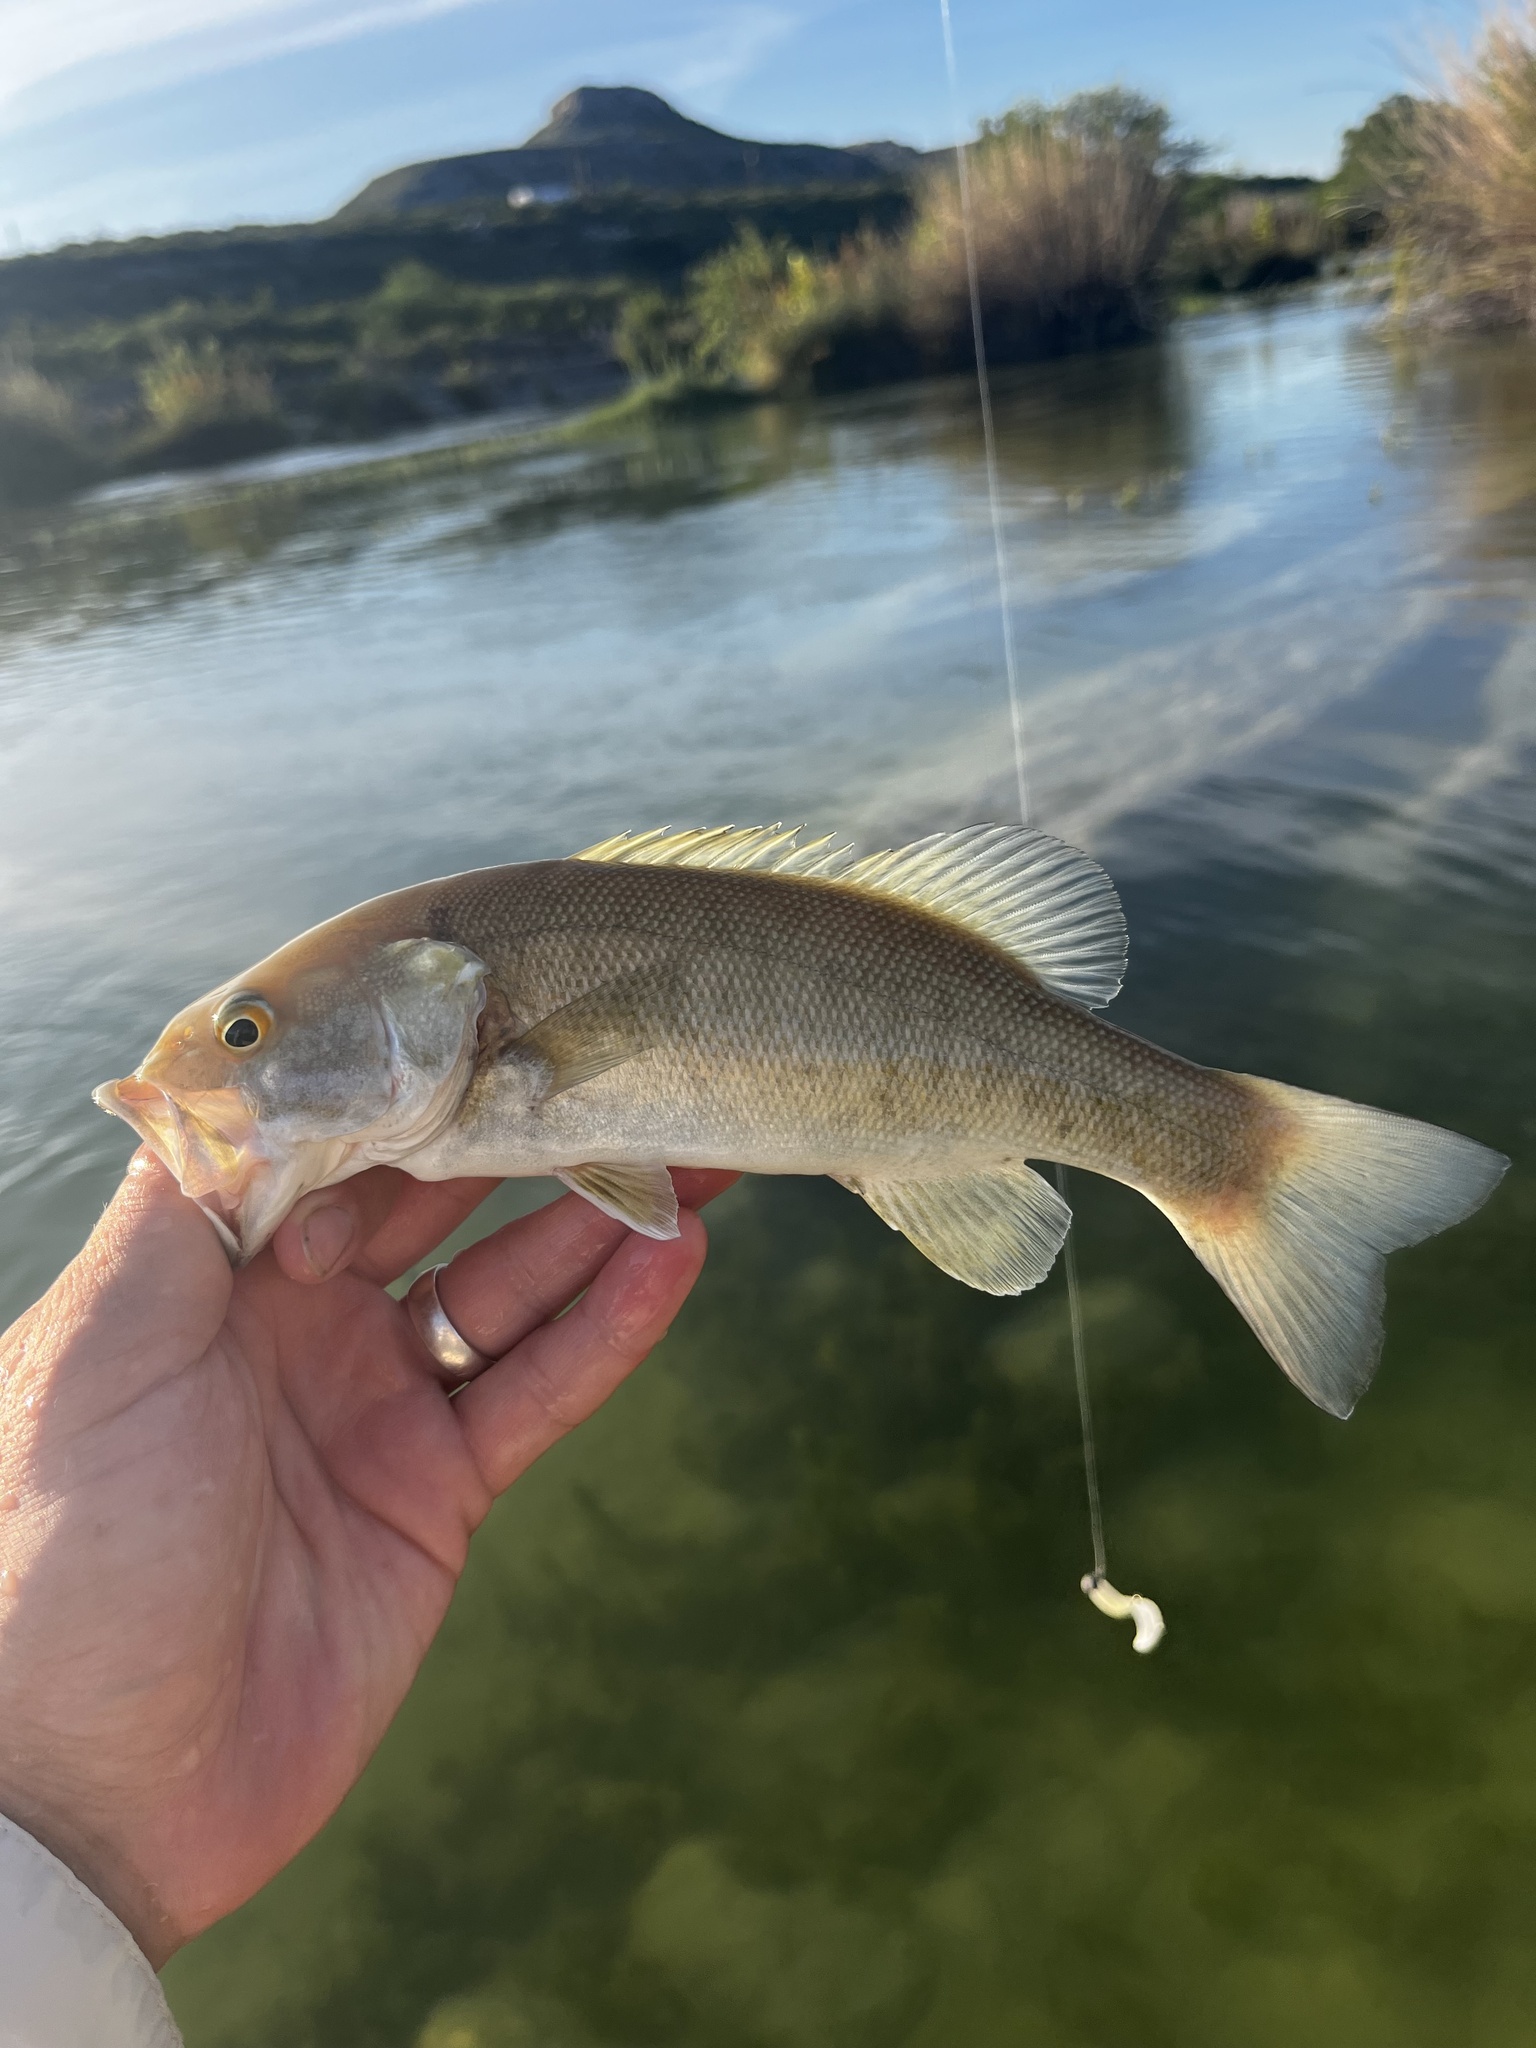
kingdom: Animalia
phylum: Chordata
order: Perciformes
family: Centrarchidae
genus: Micropterus
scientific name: Micropterus dolomieu
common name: Smallmouth bass
